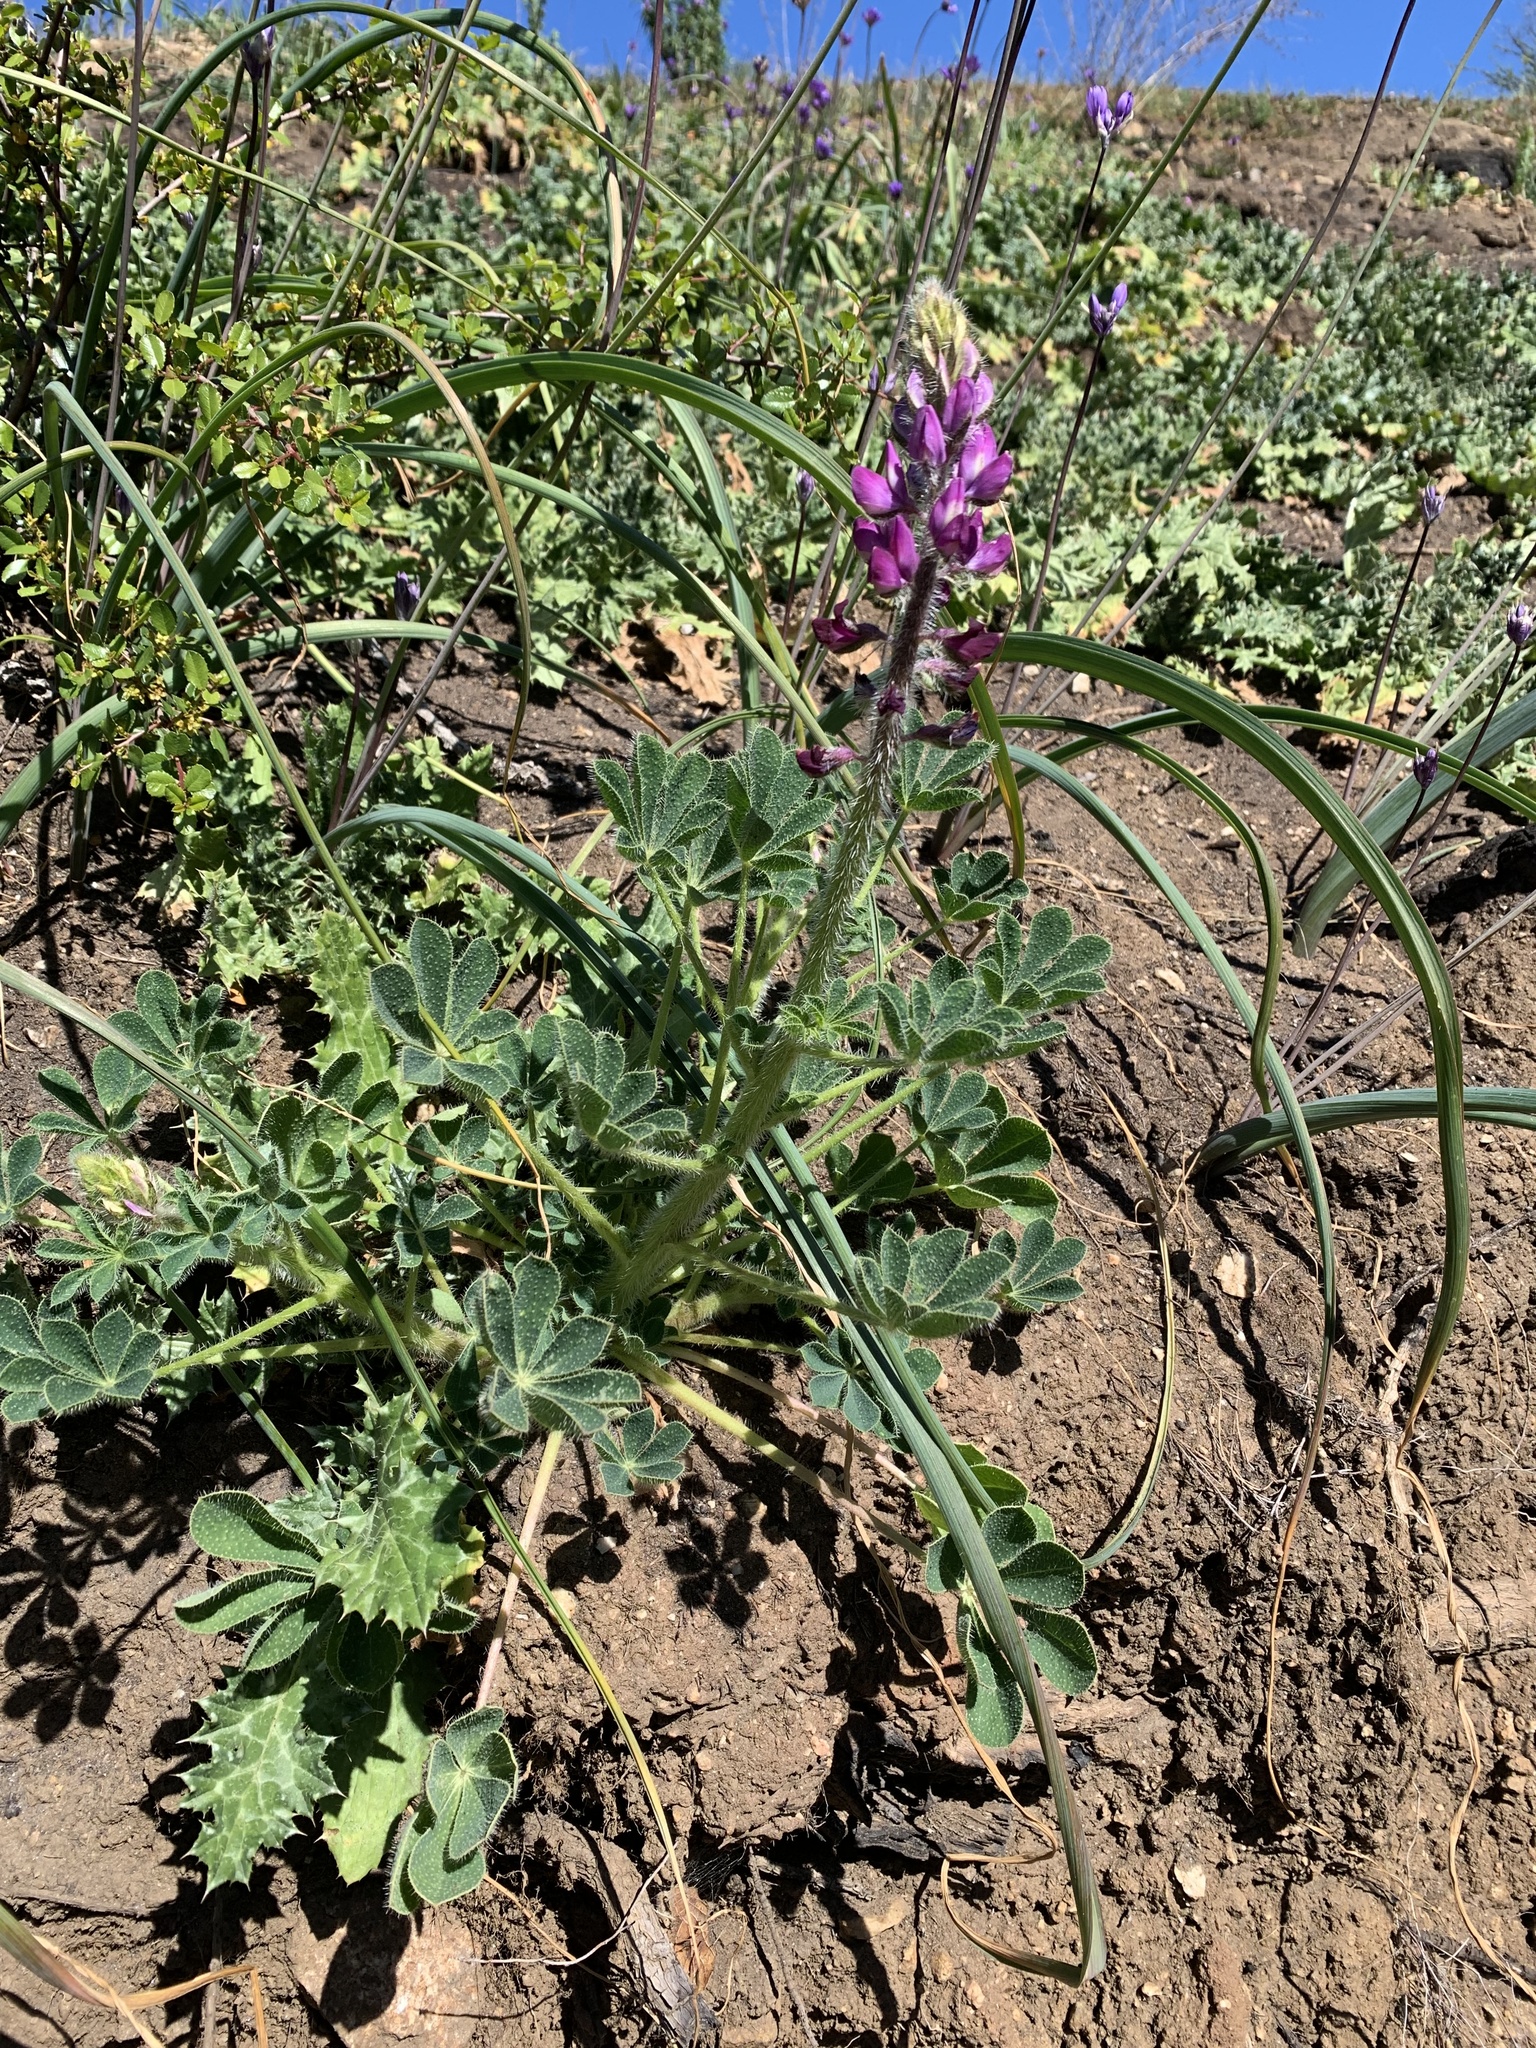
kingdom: Plantae
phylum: Tracheophyta
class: Magnoliopsida
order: Fabales
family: Fabaceae
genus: Lupinus
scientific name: Lupinus hirsutissimus
